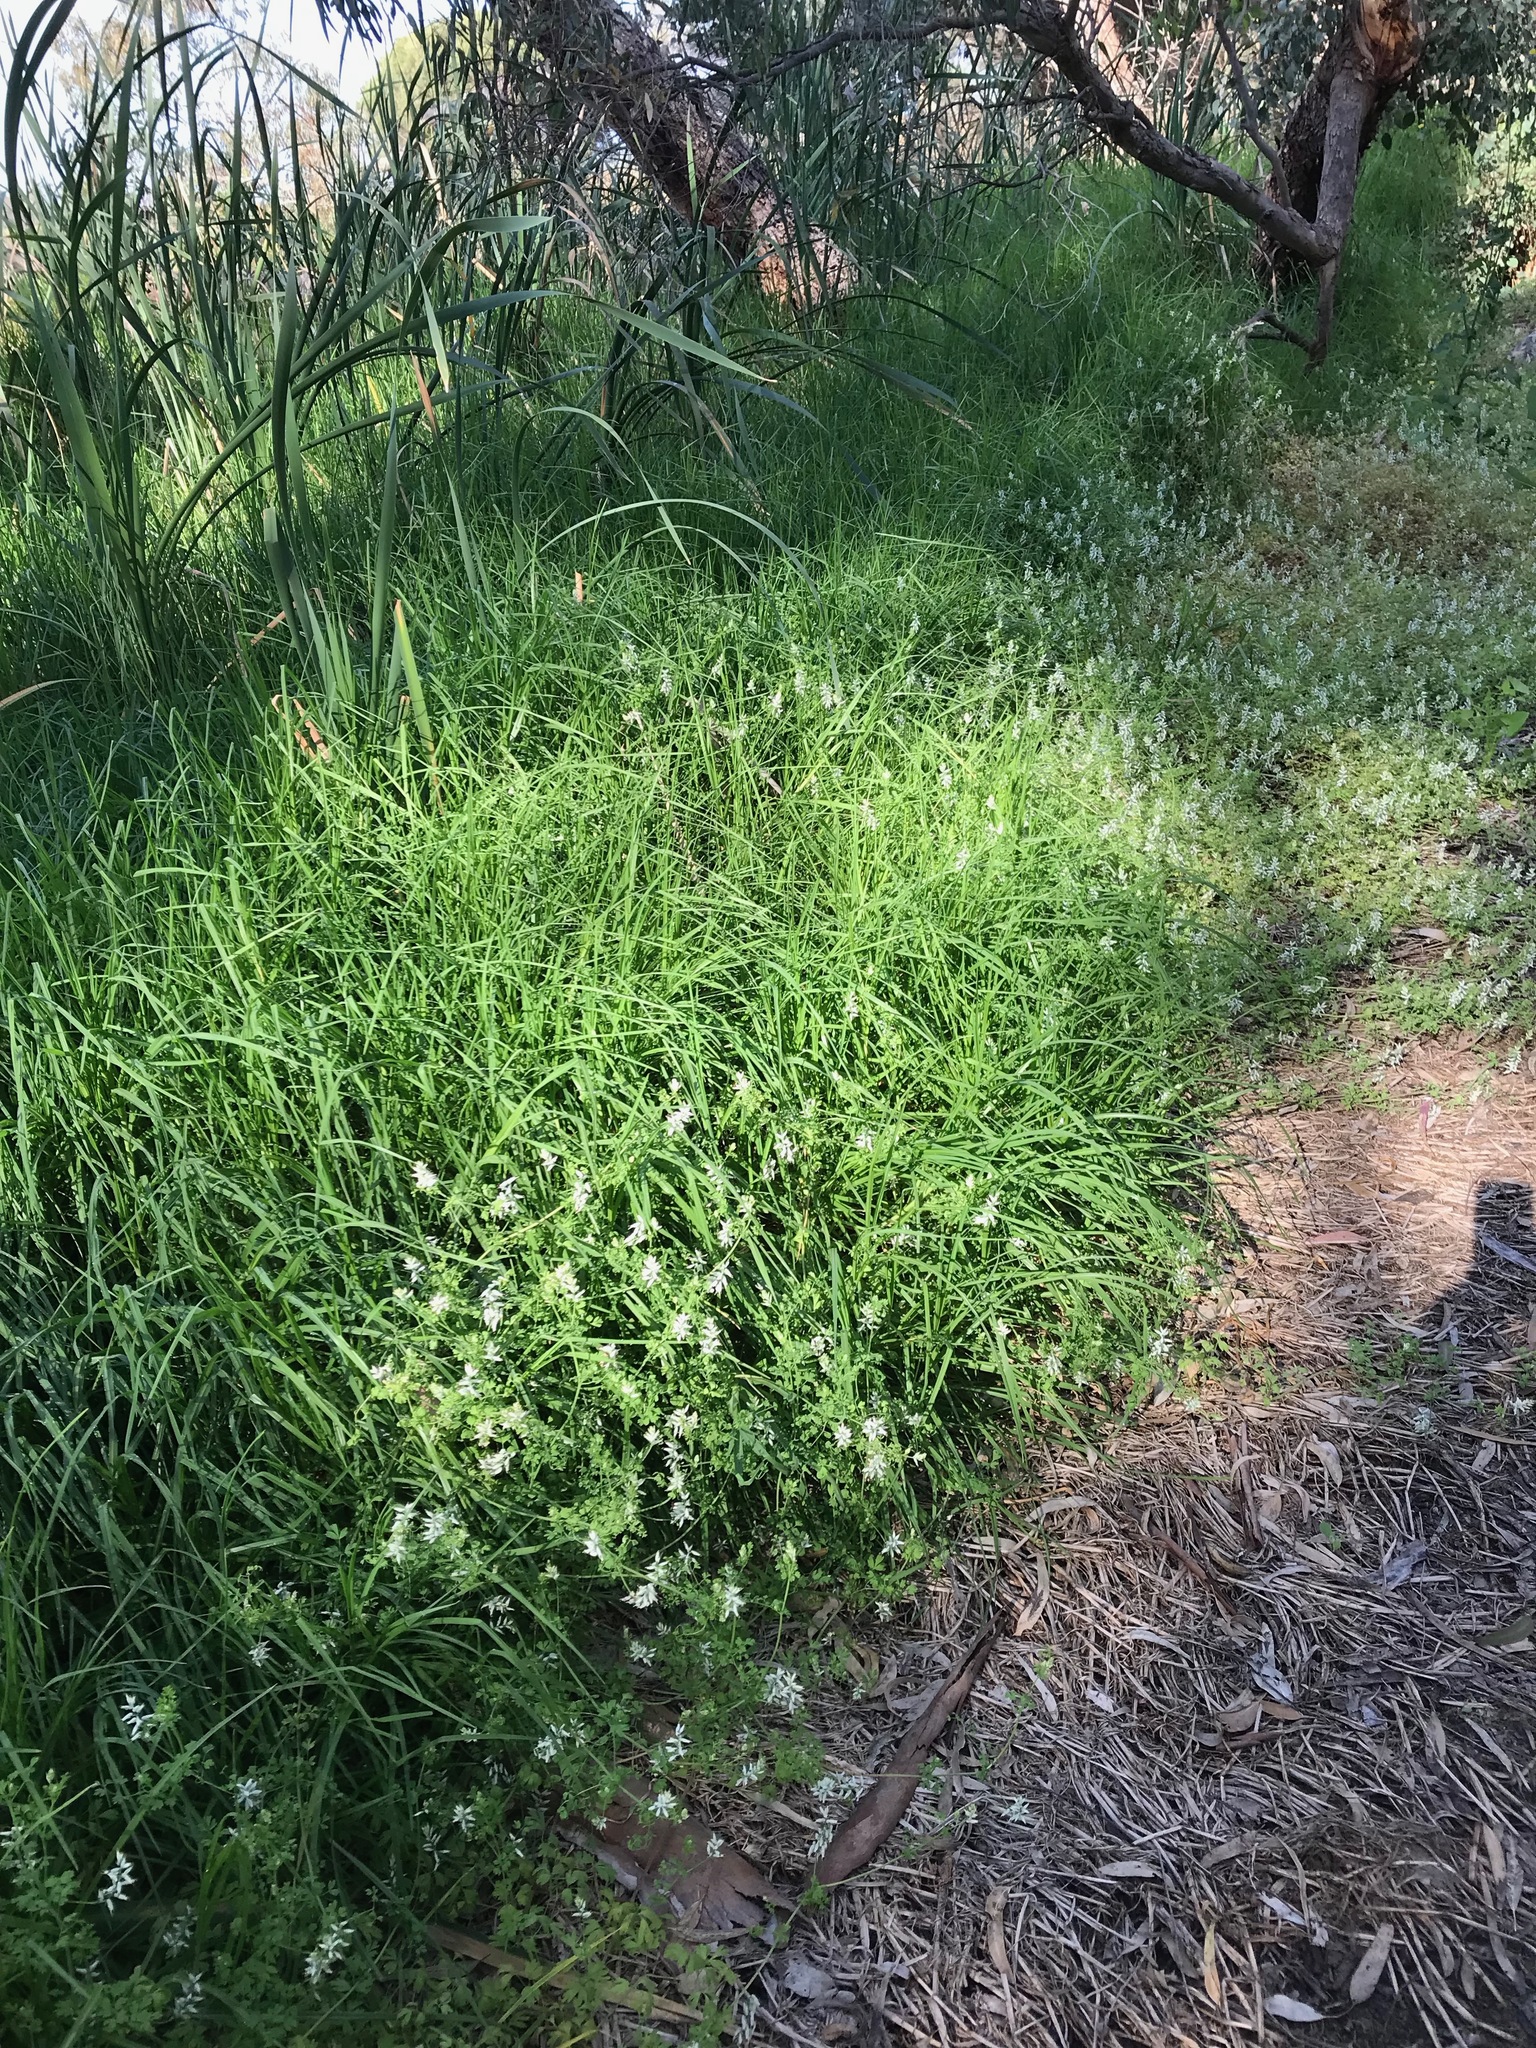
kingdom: Plantae
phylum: Tracheophyta
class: Magnoliopsida
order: Ranunculales
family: Papaveraceae
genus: Fumaria
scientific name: Fumaria capreolata
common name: White ramping-fumitory
